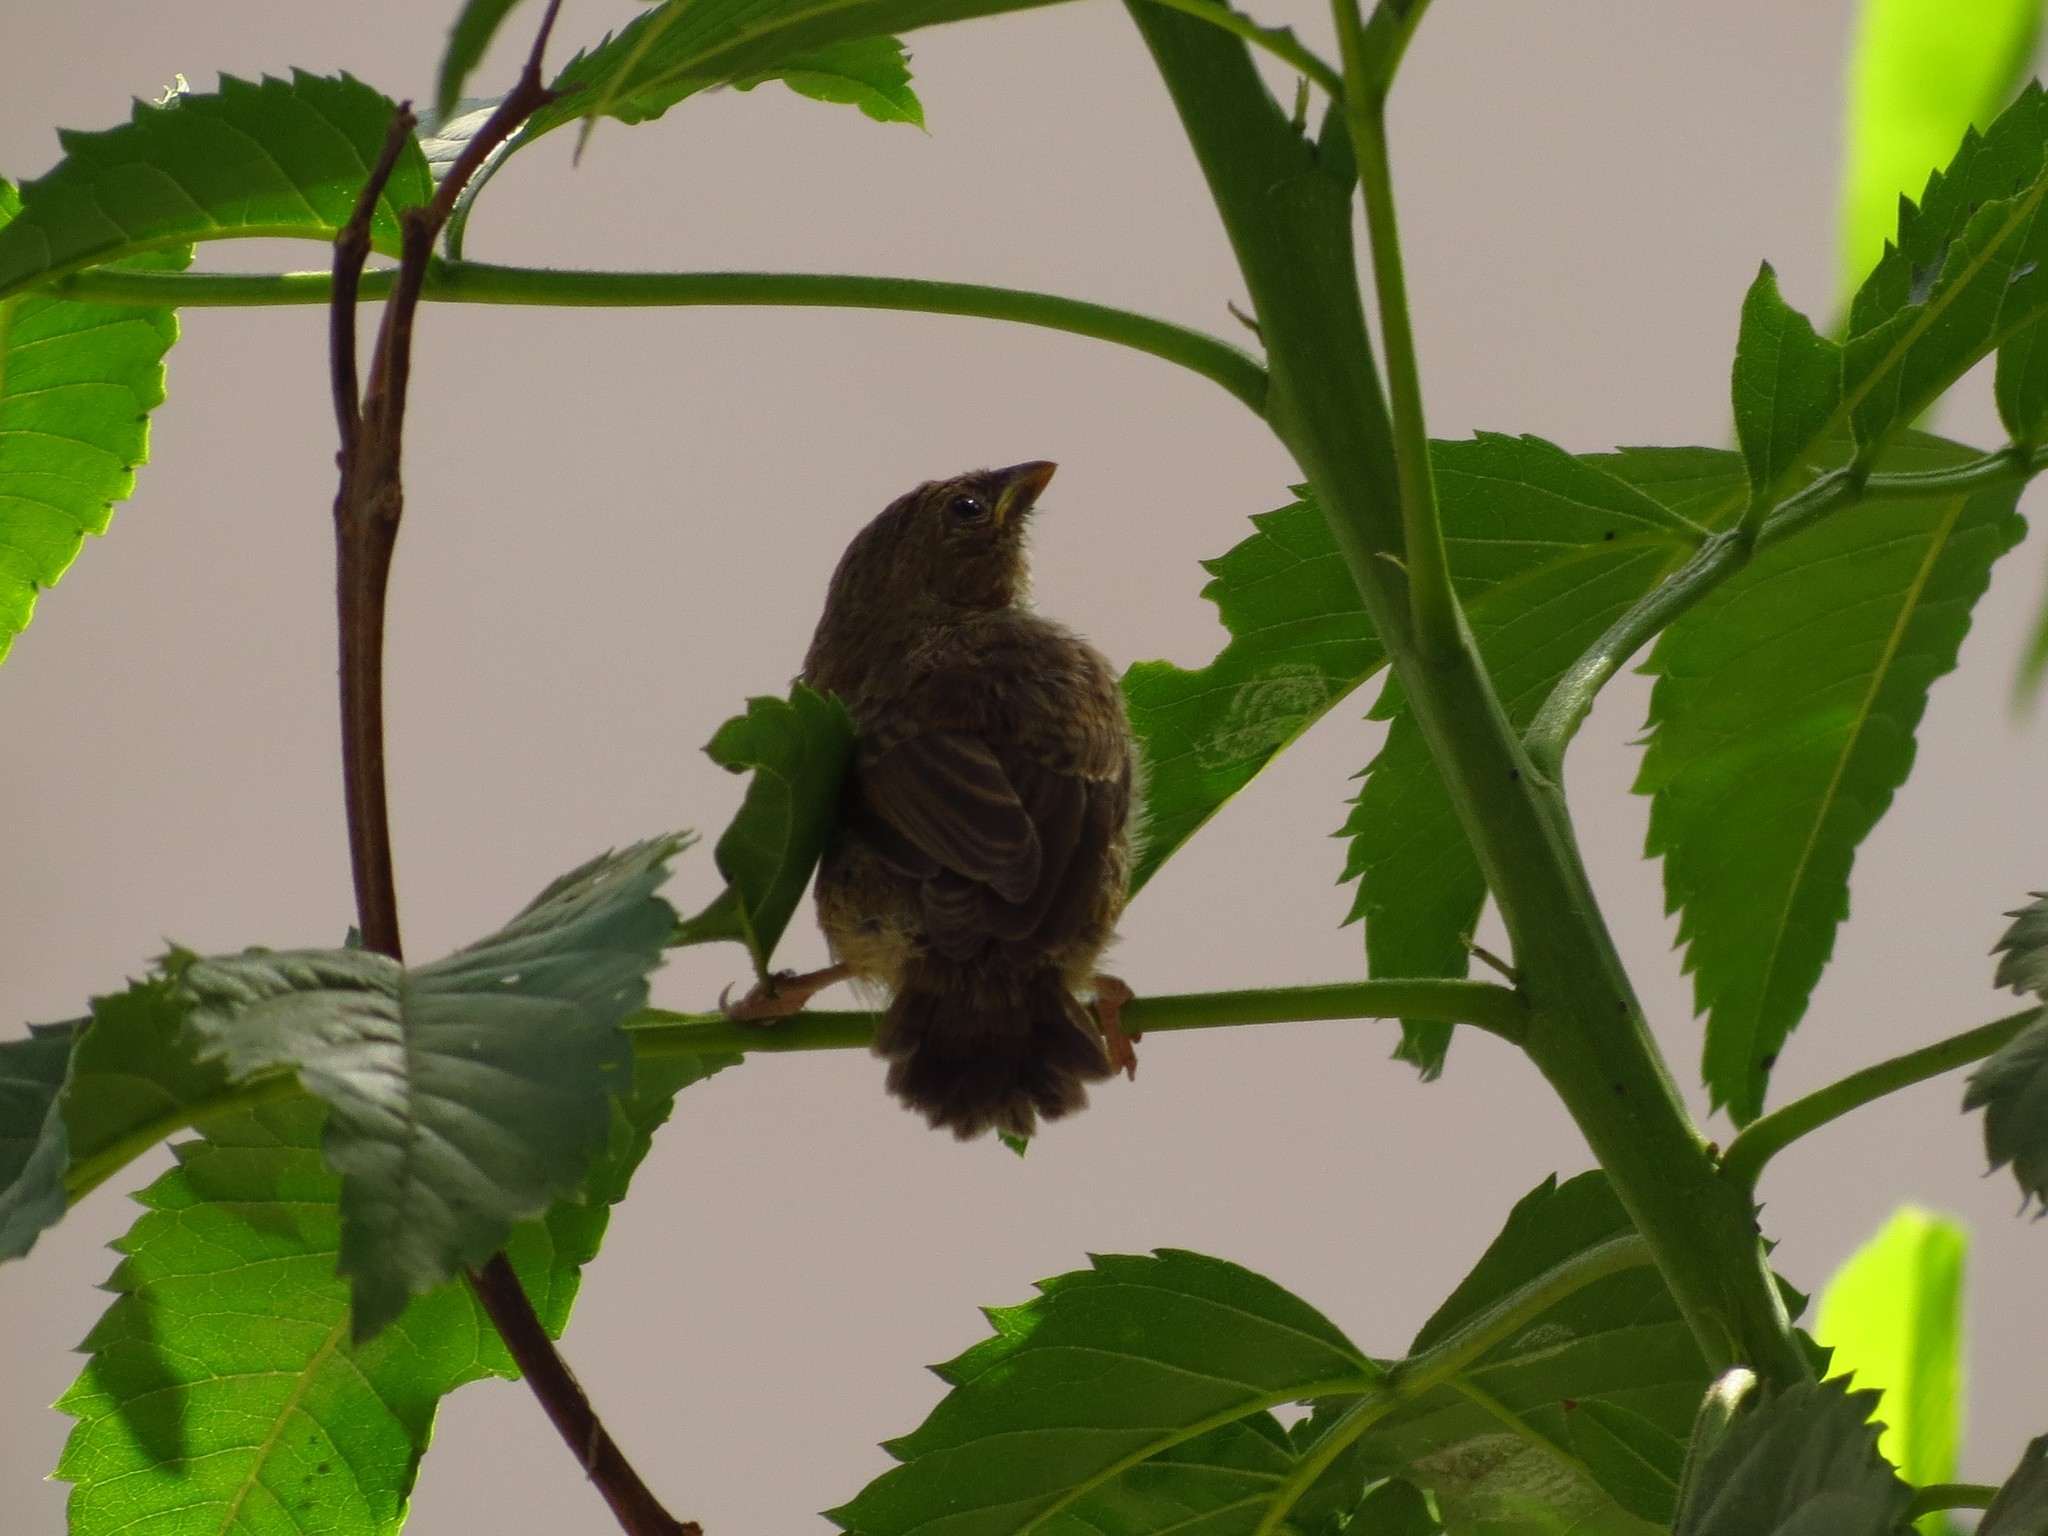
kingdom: Animalia
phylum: Chordata
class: Aves
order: Passeriformes
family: Icteridae
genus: Molothrus
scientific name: Molothrus bonariensis
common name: Shiny cowbird
